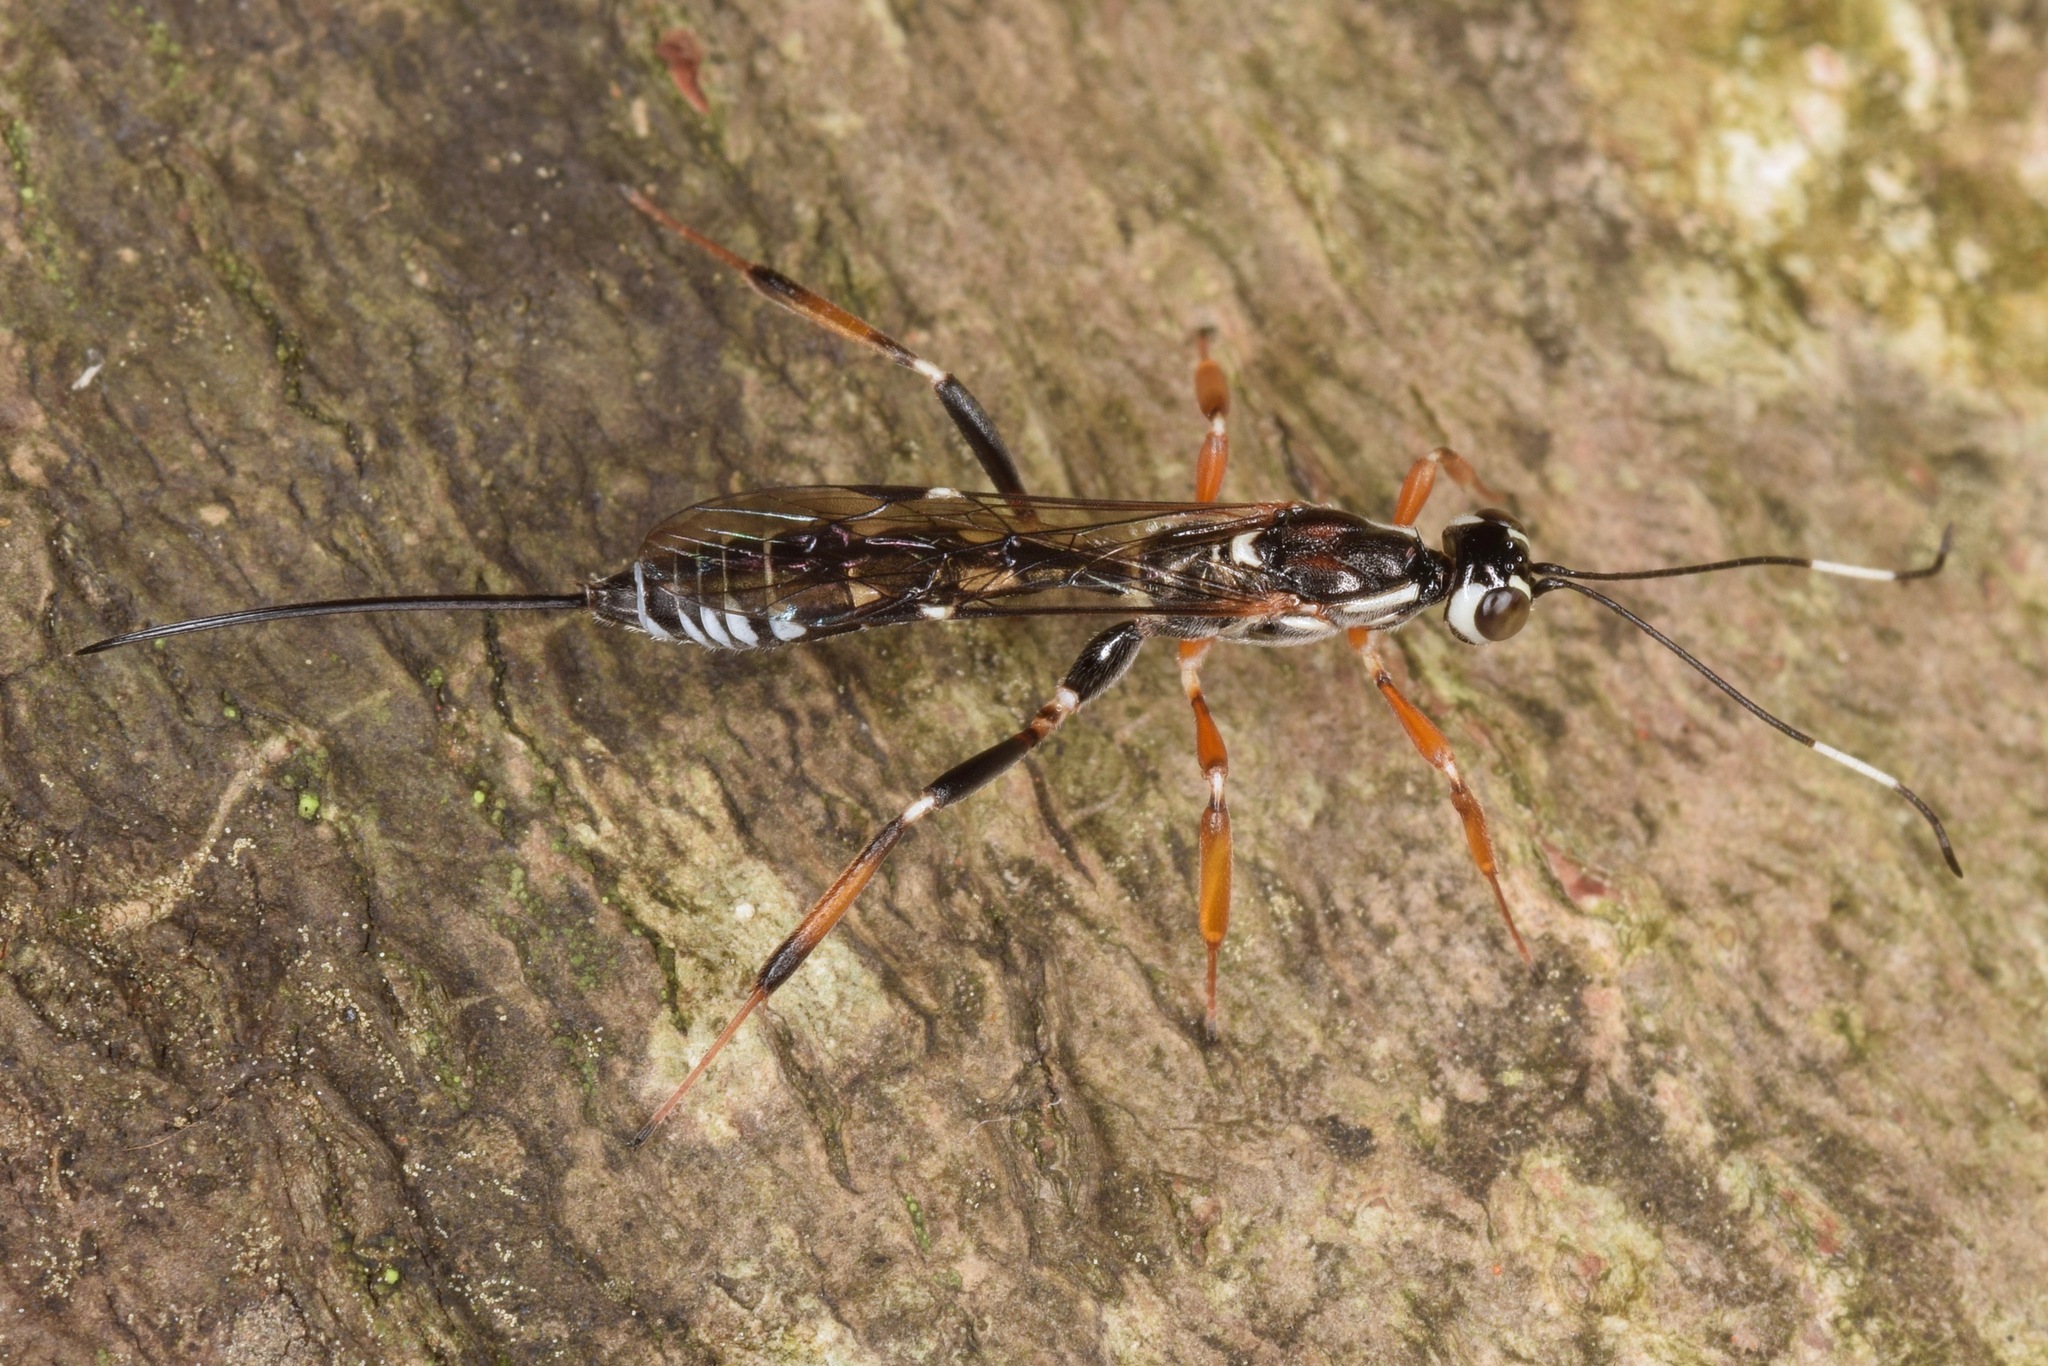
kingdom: Animalia
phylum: Arthropoda
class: Insecta
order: Hymenoptera
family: Ichneumonidae
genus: Xorides
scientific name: Xorides albopictus
